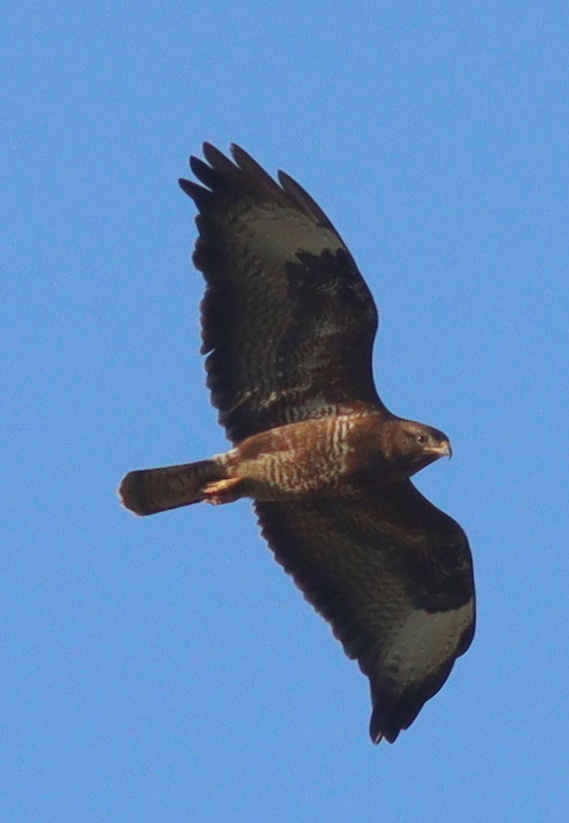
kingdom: Animalia
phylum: Chordata
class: Aves
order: Accipitriformes
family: Accipitridae
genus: Buteo
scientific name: Buteo buteo
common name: Common buzzard
